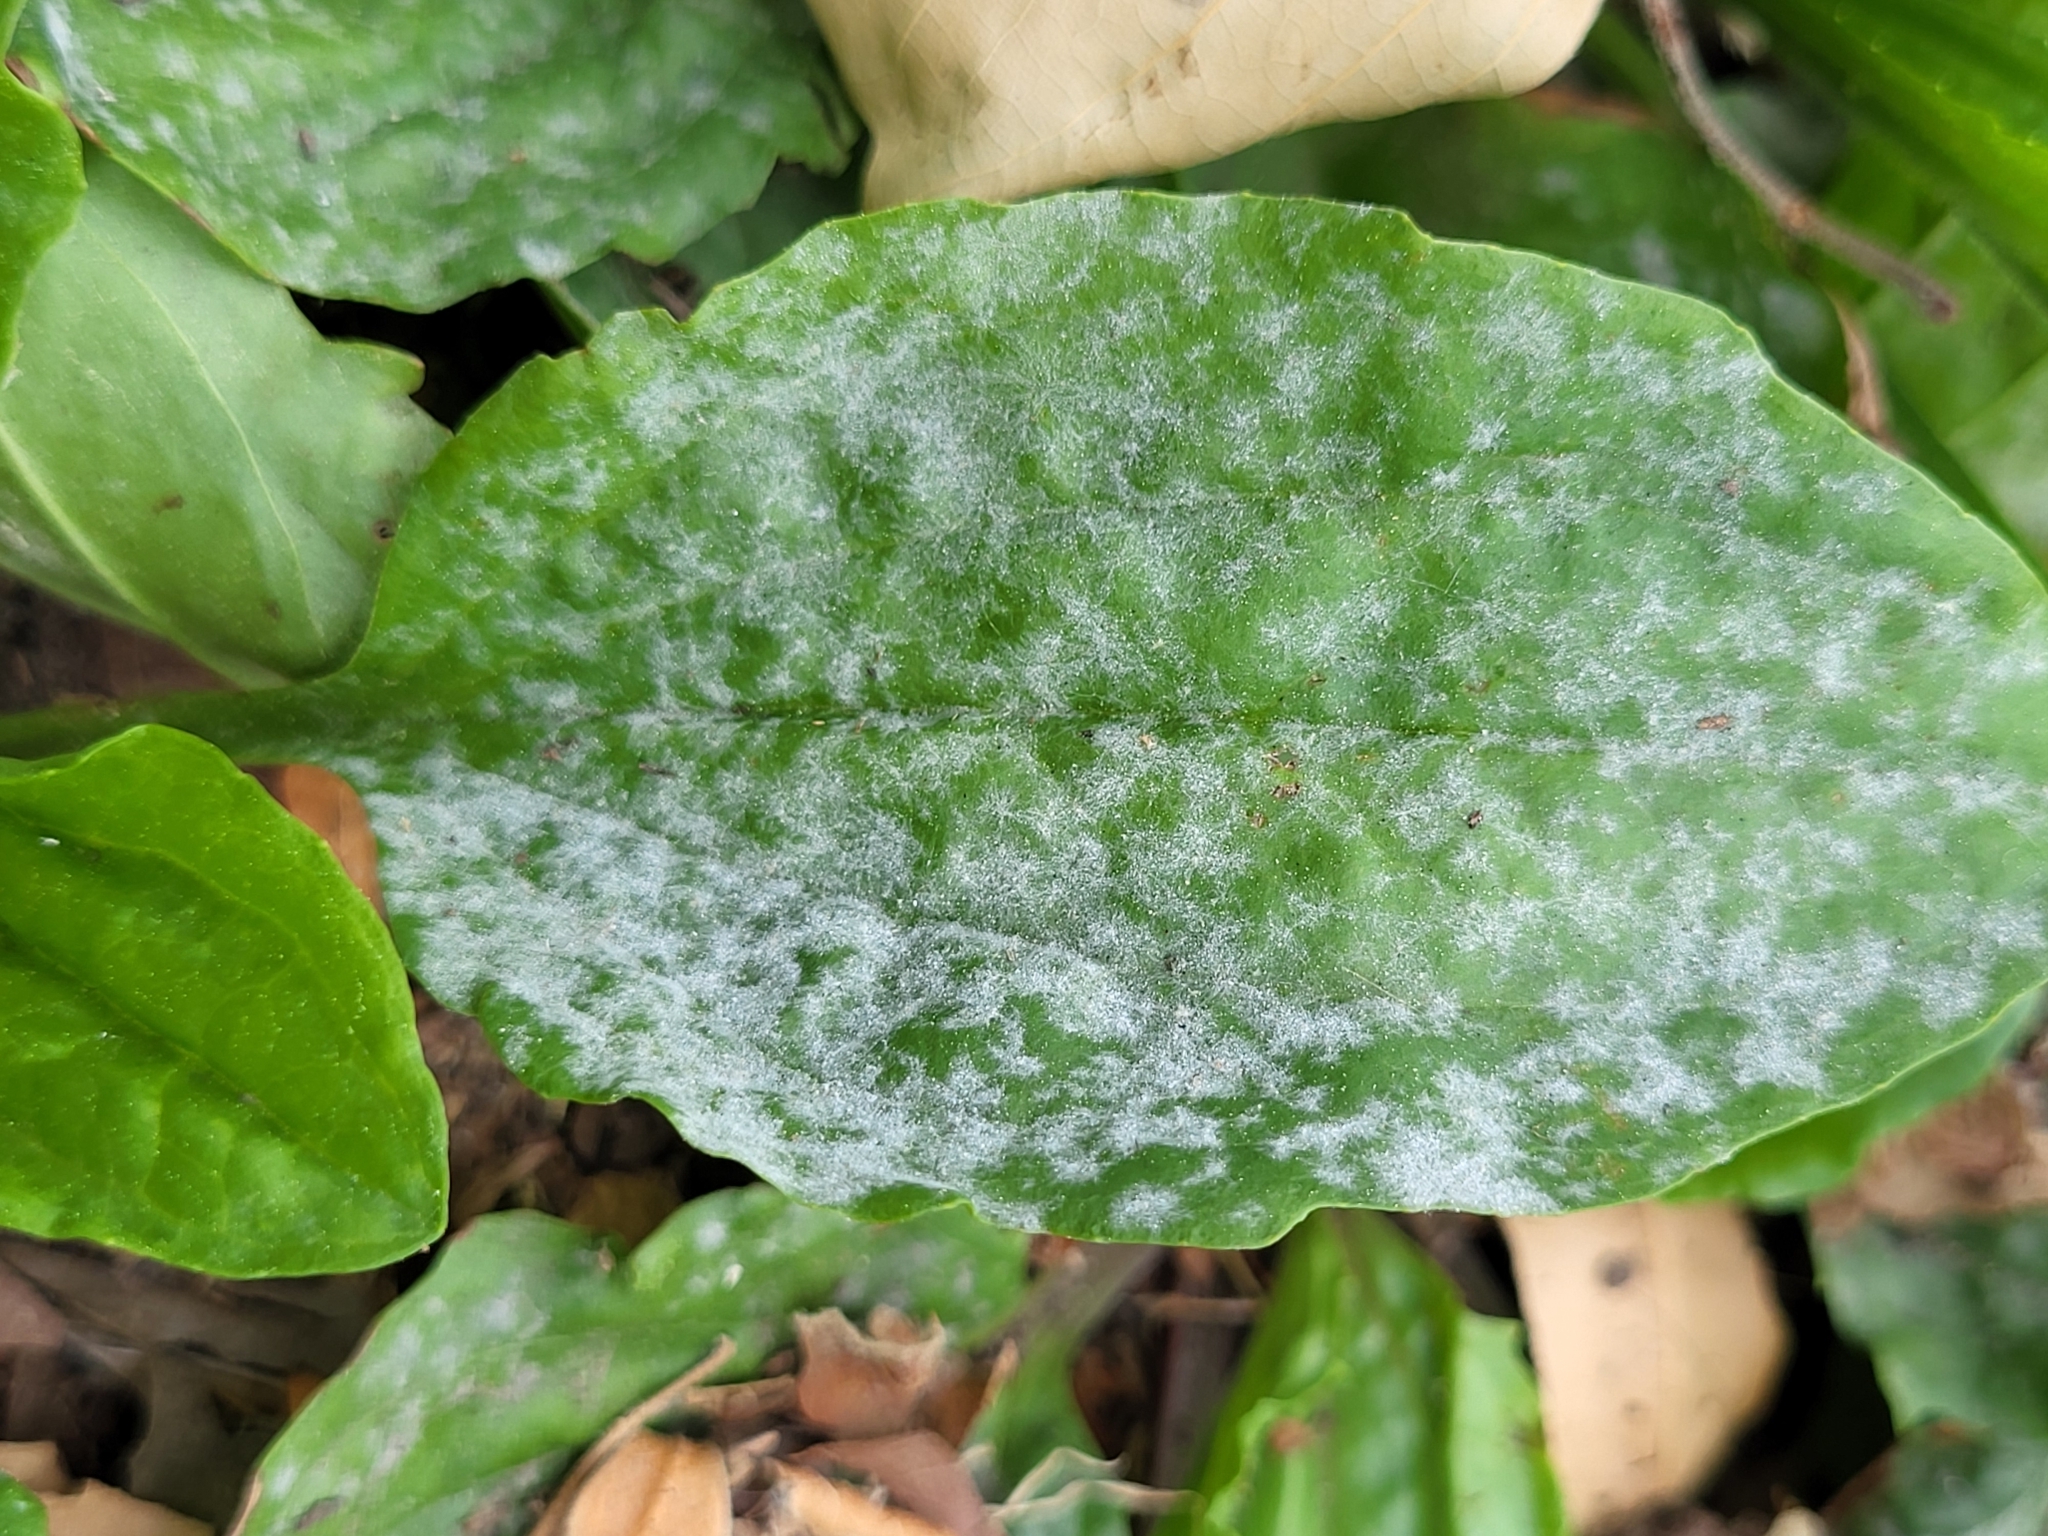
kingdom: Fungi
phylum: Ascomycota
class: Leotiomycetes
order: Helotiales
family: Erysiphaceae
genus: Golovinomyces
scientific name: Golovinomyces sordidus
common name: Plantain mildew
